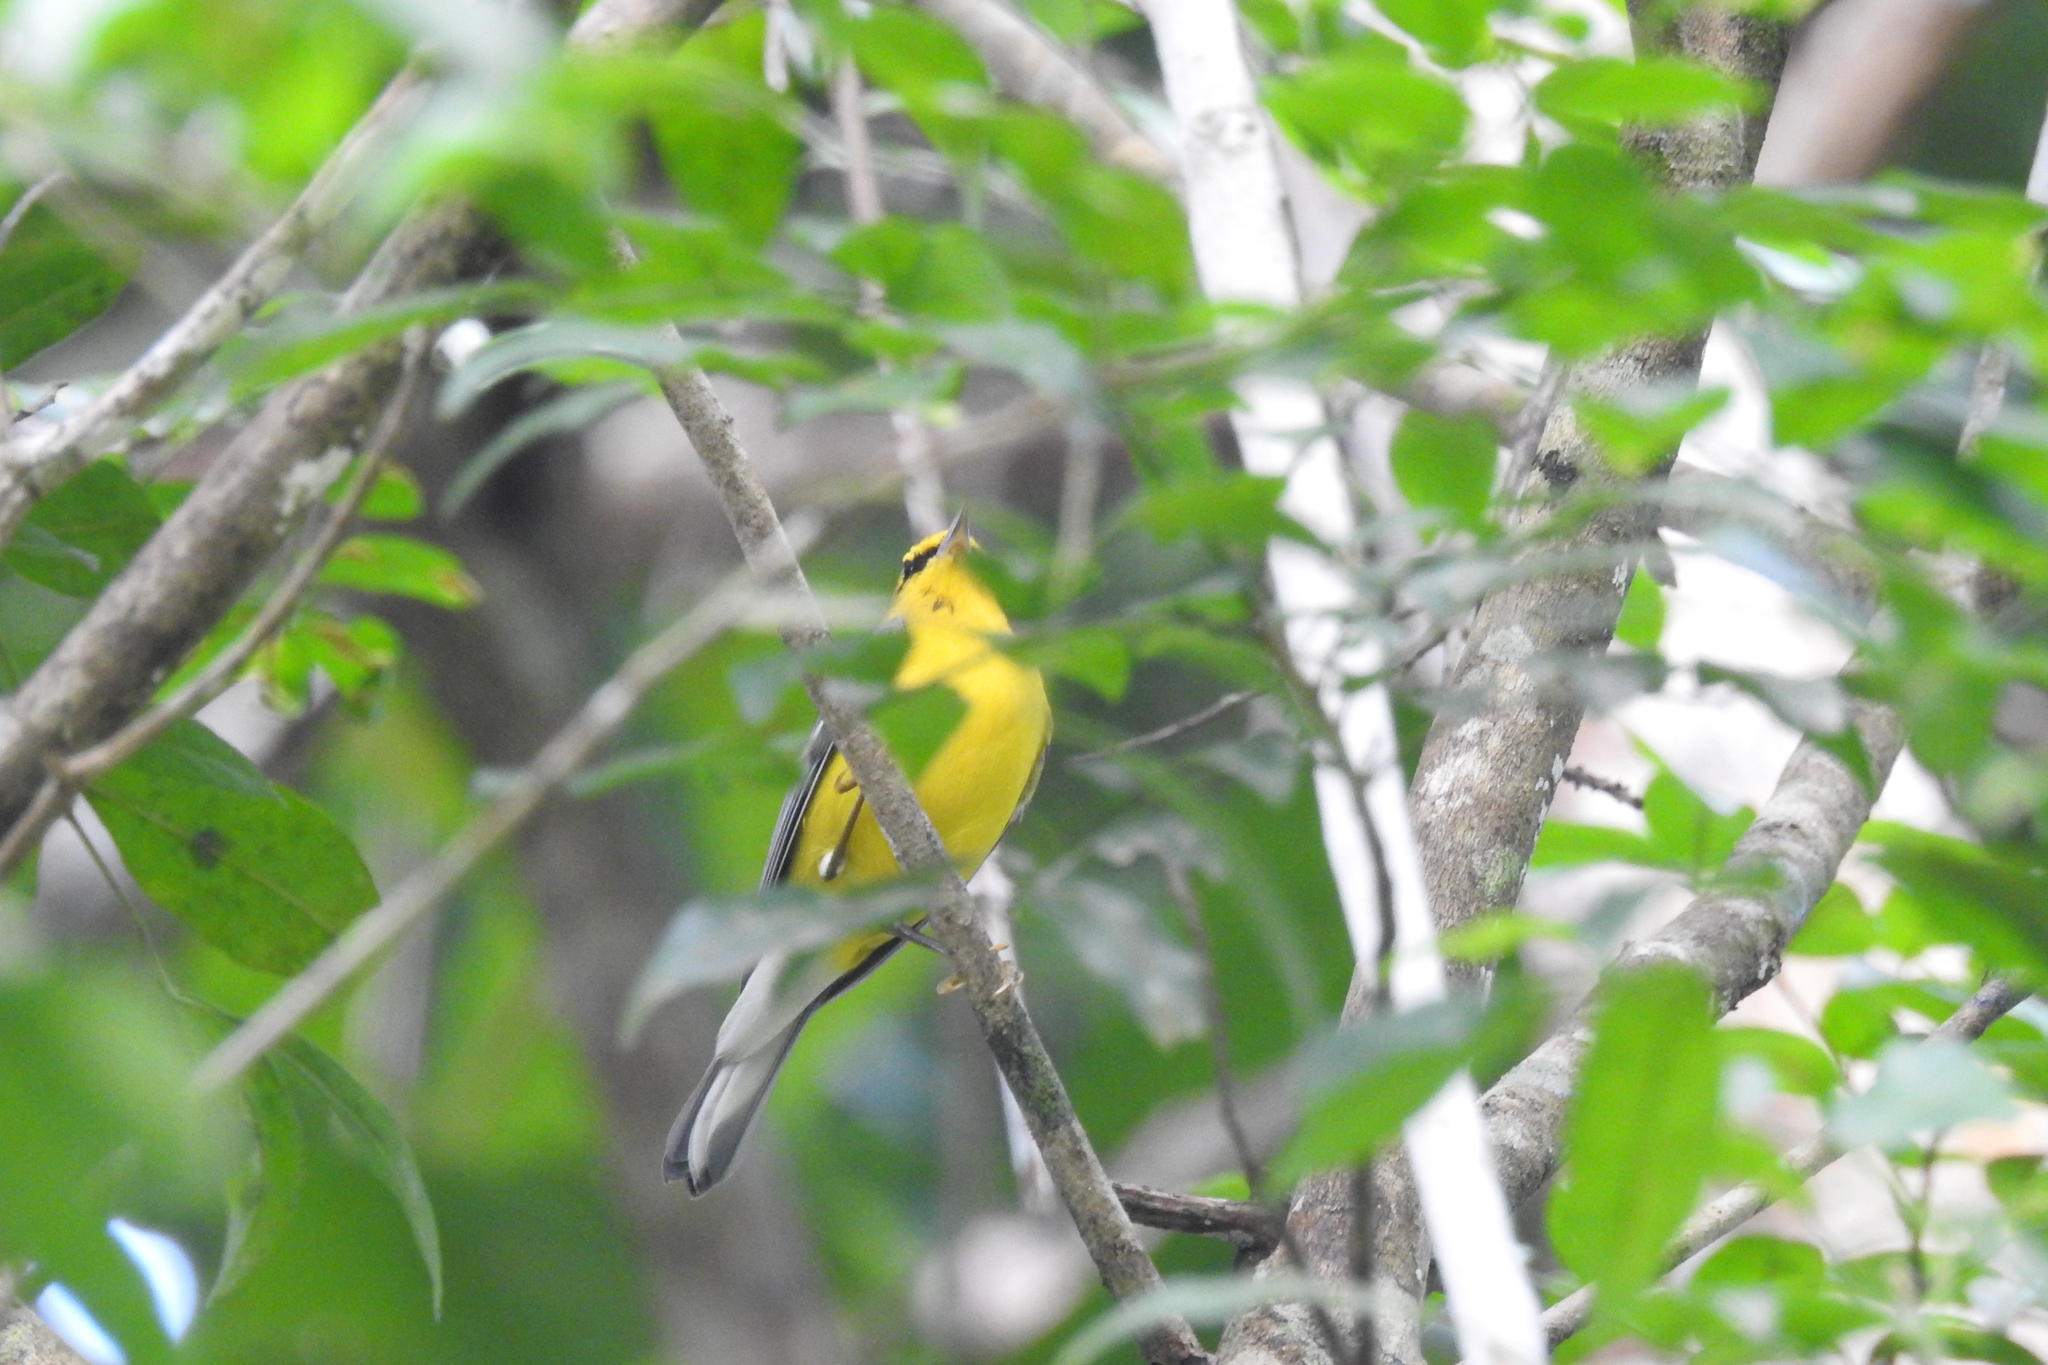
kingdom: Animalia
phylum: Chordata
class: Aves
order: Passeriformes
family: Parulidae
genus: Vermivora
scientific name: Vermivora cyanoptera
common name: Blue-winged warbler
